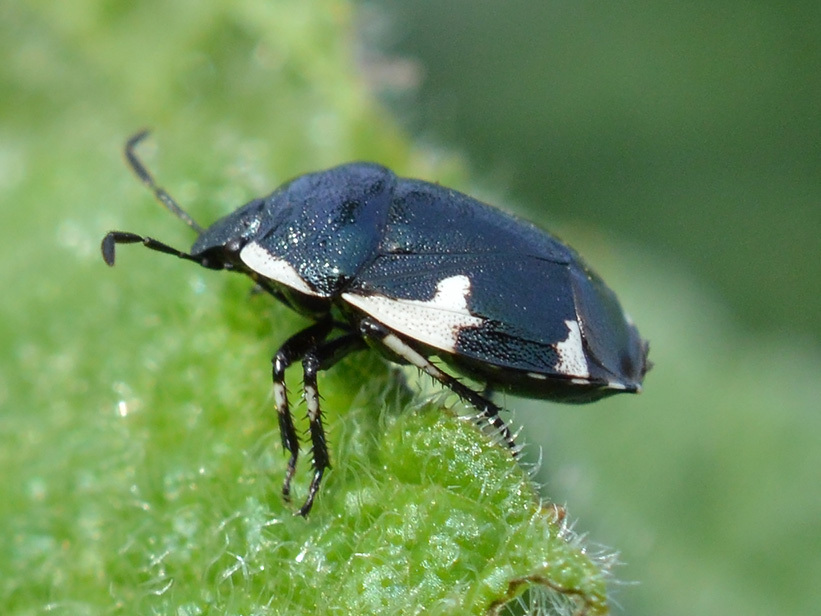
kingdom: Animalia
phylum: Arthropoda
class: Insecta
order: Hemiptera
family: Cydnidae
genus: Tritomegas
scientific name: Tritomegas sexmaculatus
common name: Rambur's pied shieldbug
